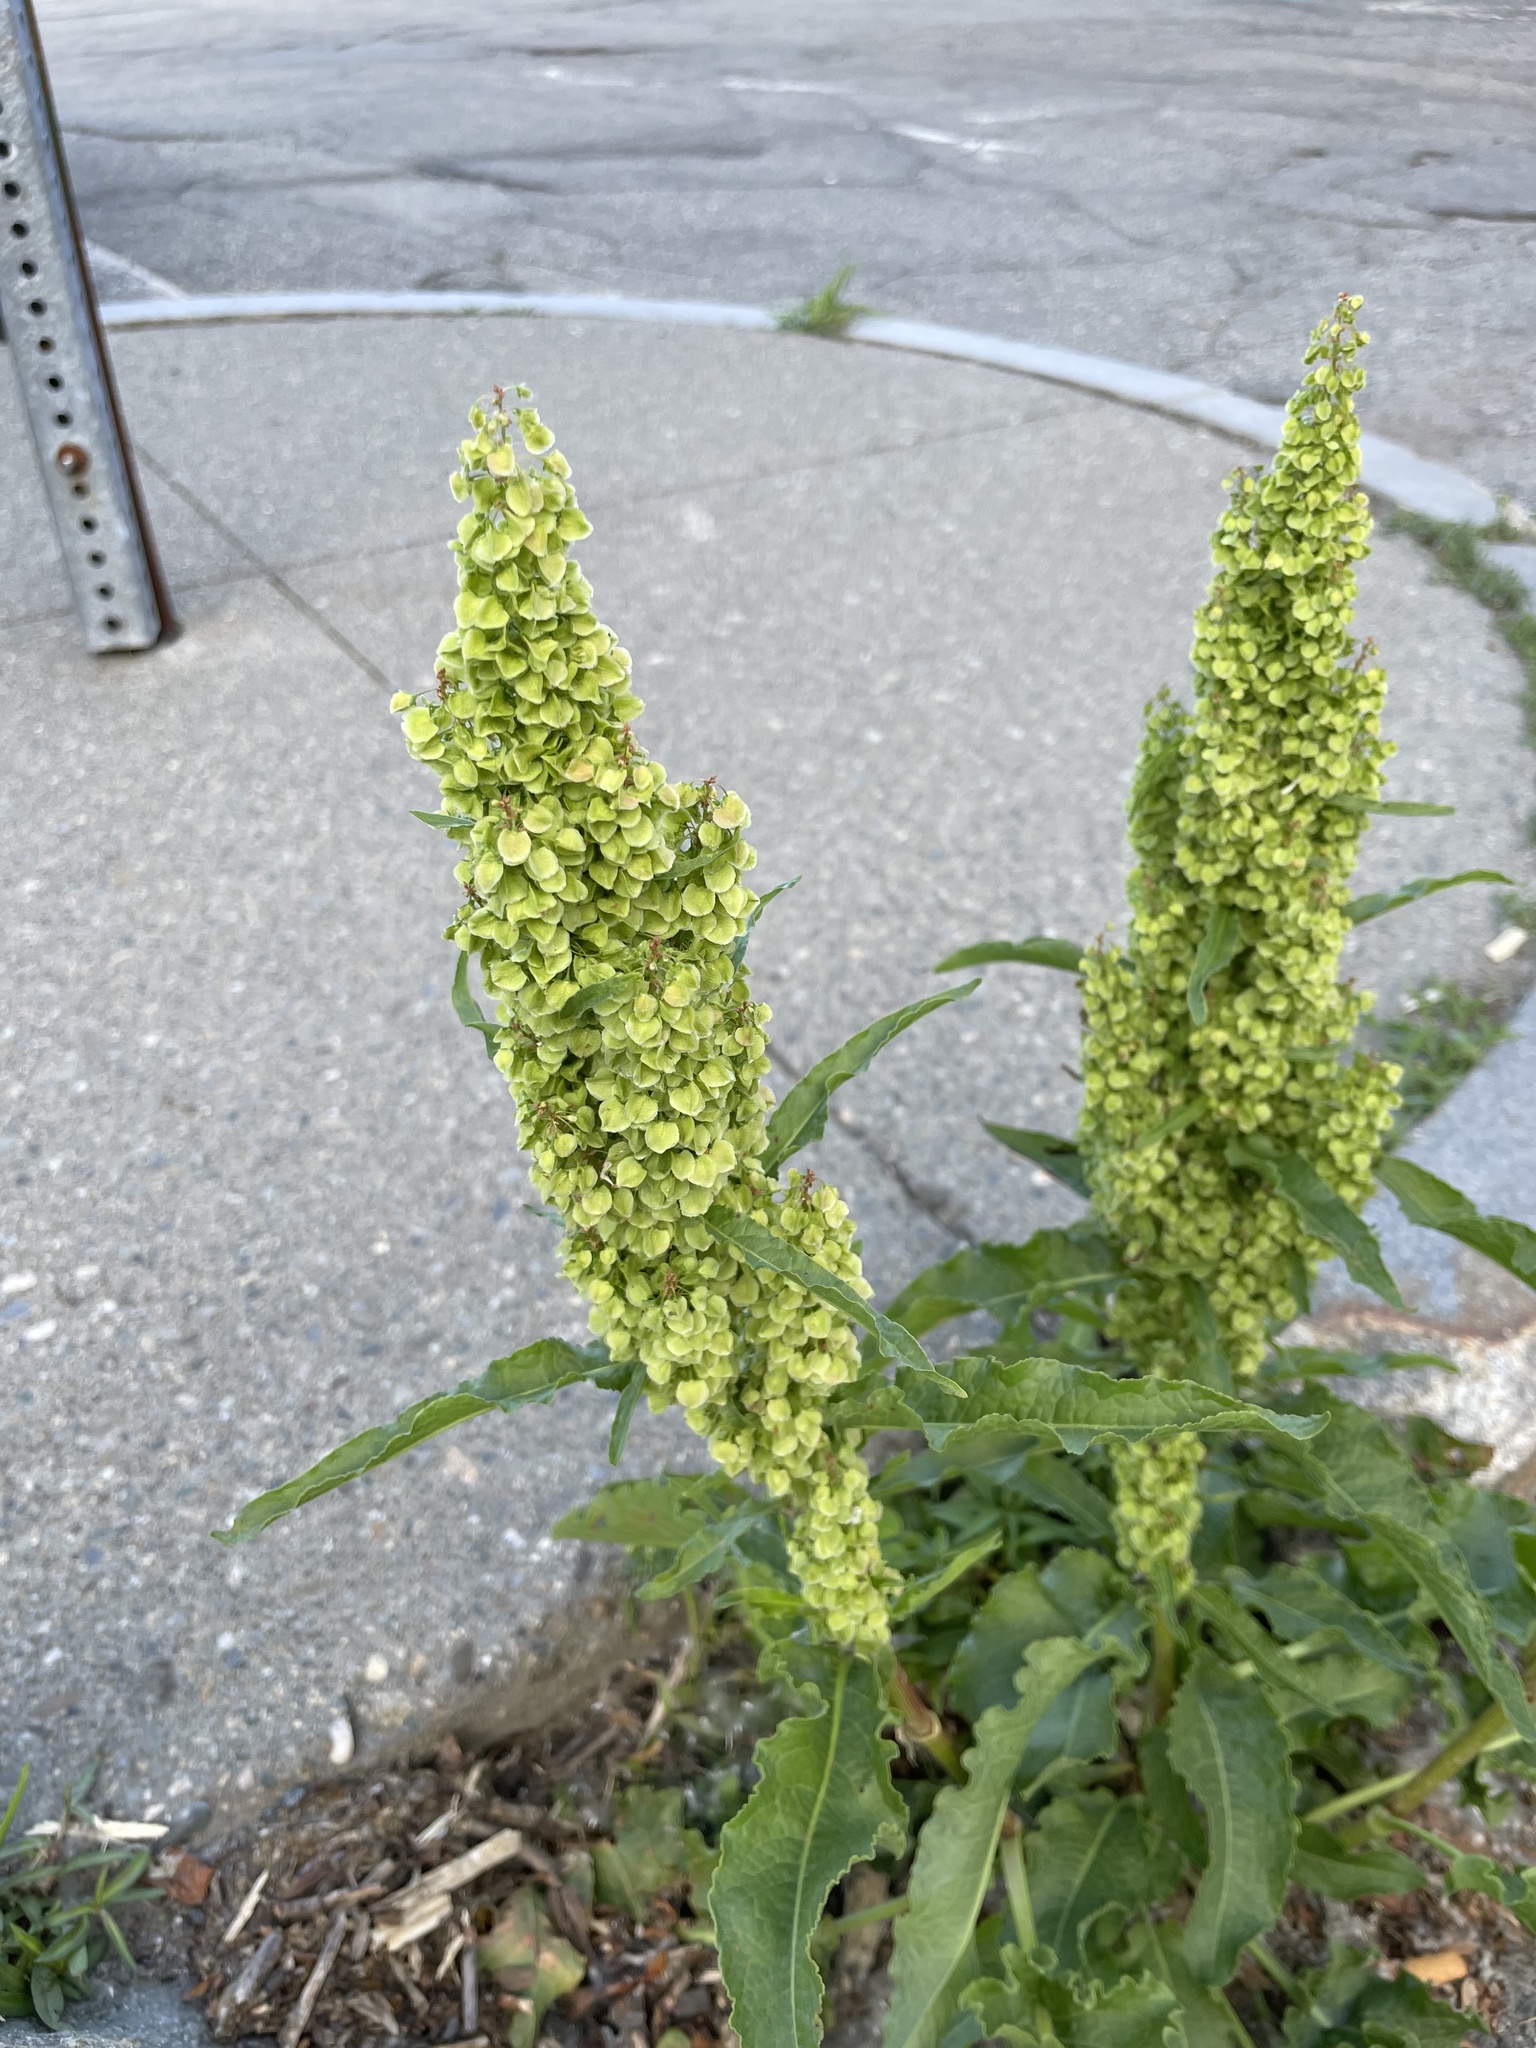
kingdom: Plantae
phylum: Tracheophyta
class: Magnoliopsida
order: Caryophyllales
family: Polygonaceae
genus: Rumex
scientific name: Rumex crispus
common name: Curled dock
